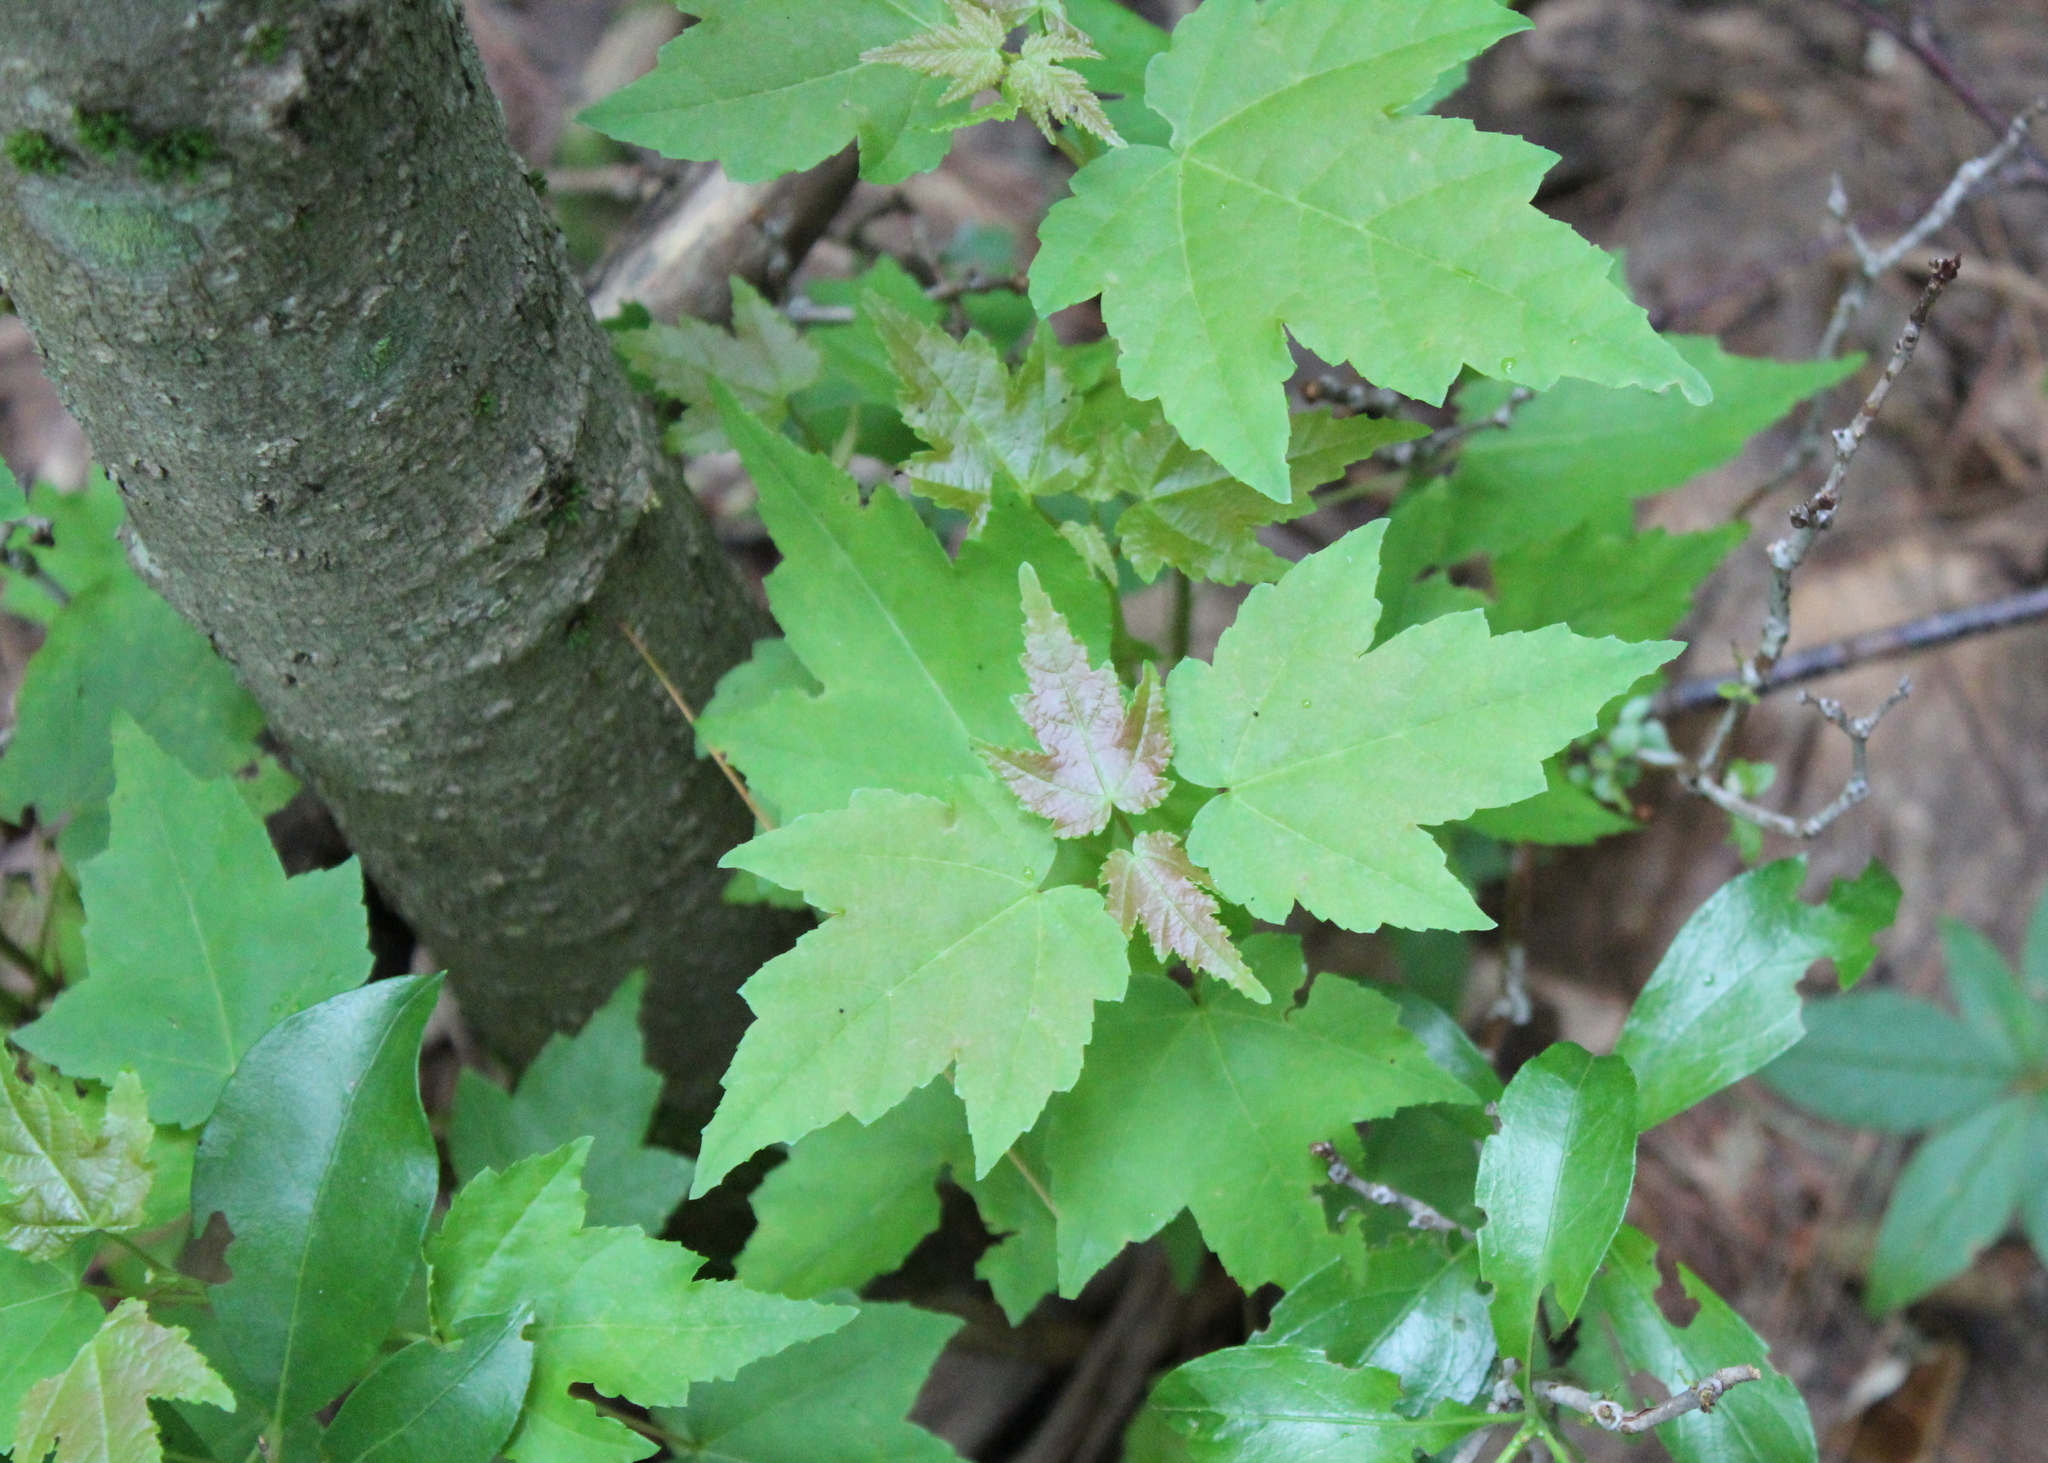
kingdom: Plantae
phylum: Tracheophyta
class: Magnoliopsida
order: Sapindales
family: Sapindaceae
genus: Acer
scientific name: Acer rubrum
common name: Red maple
